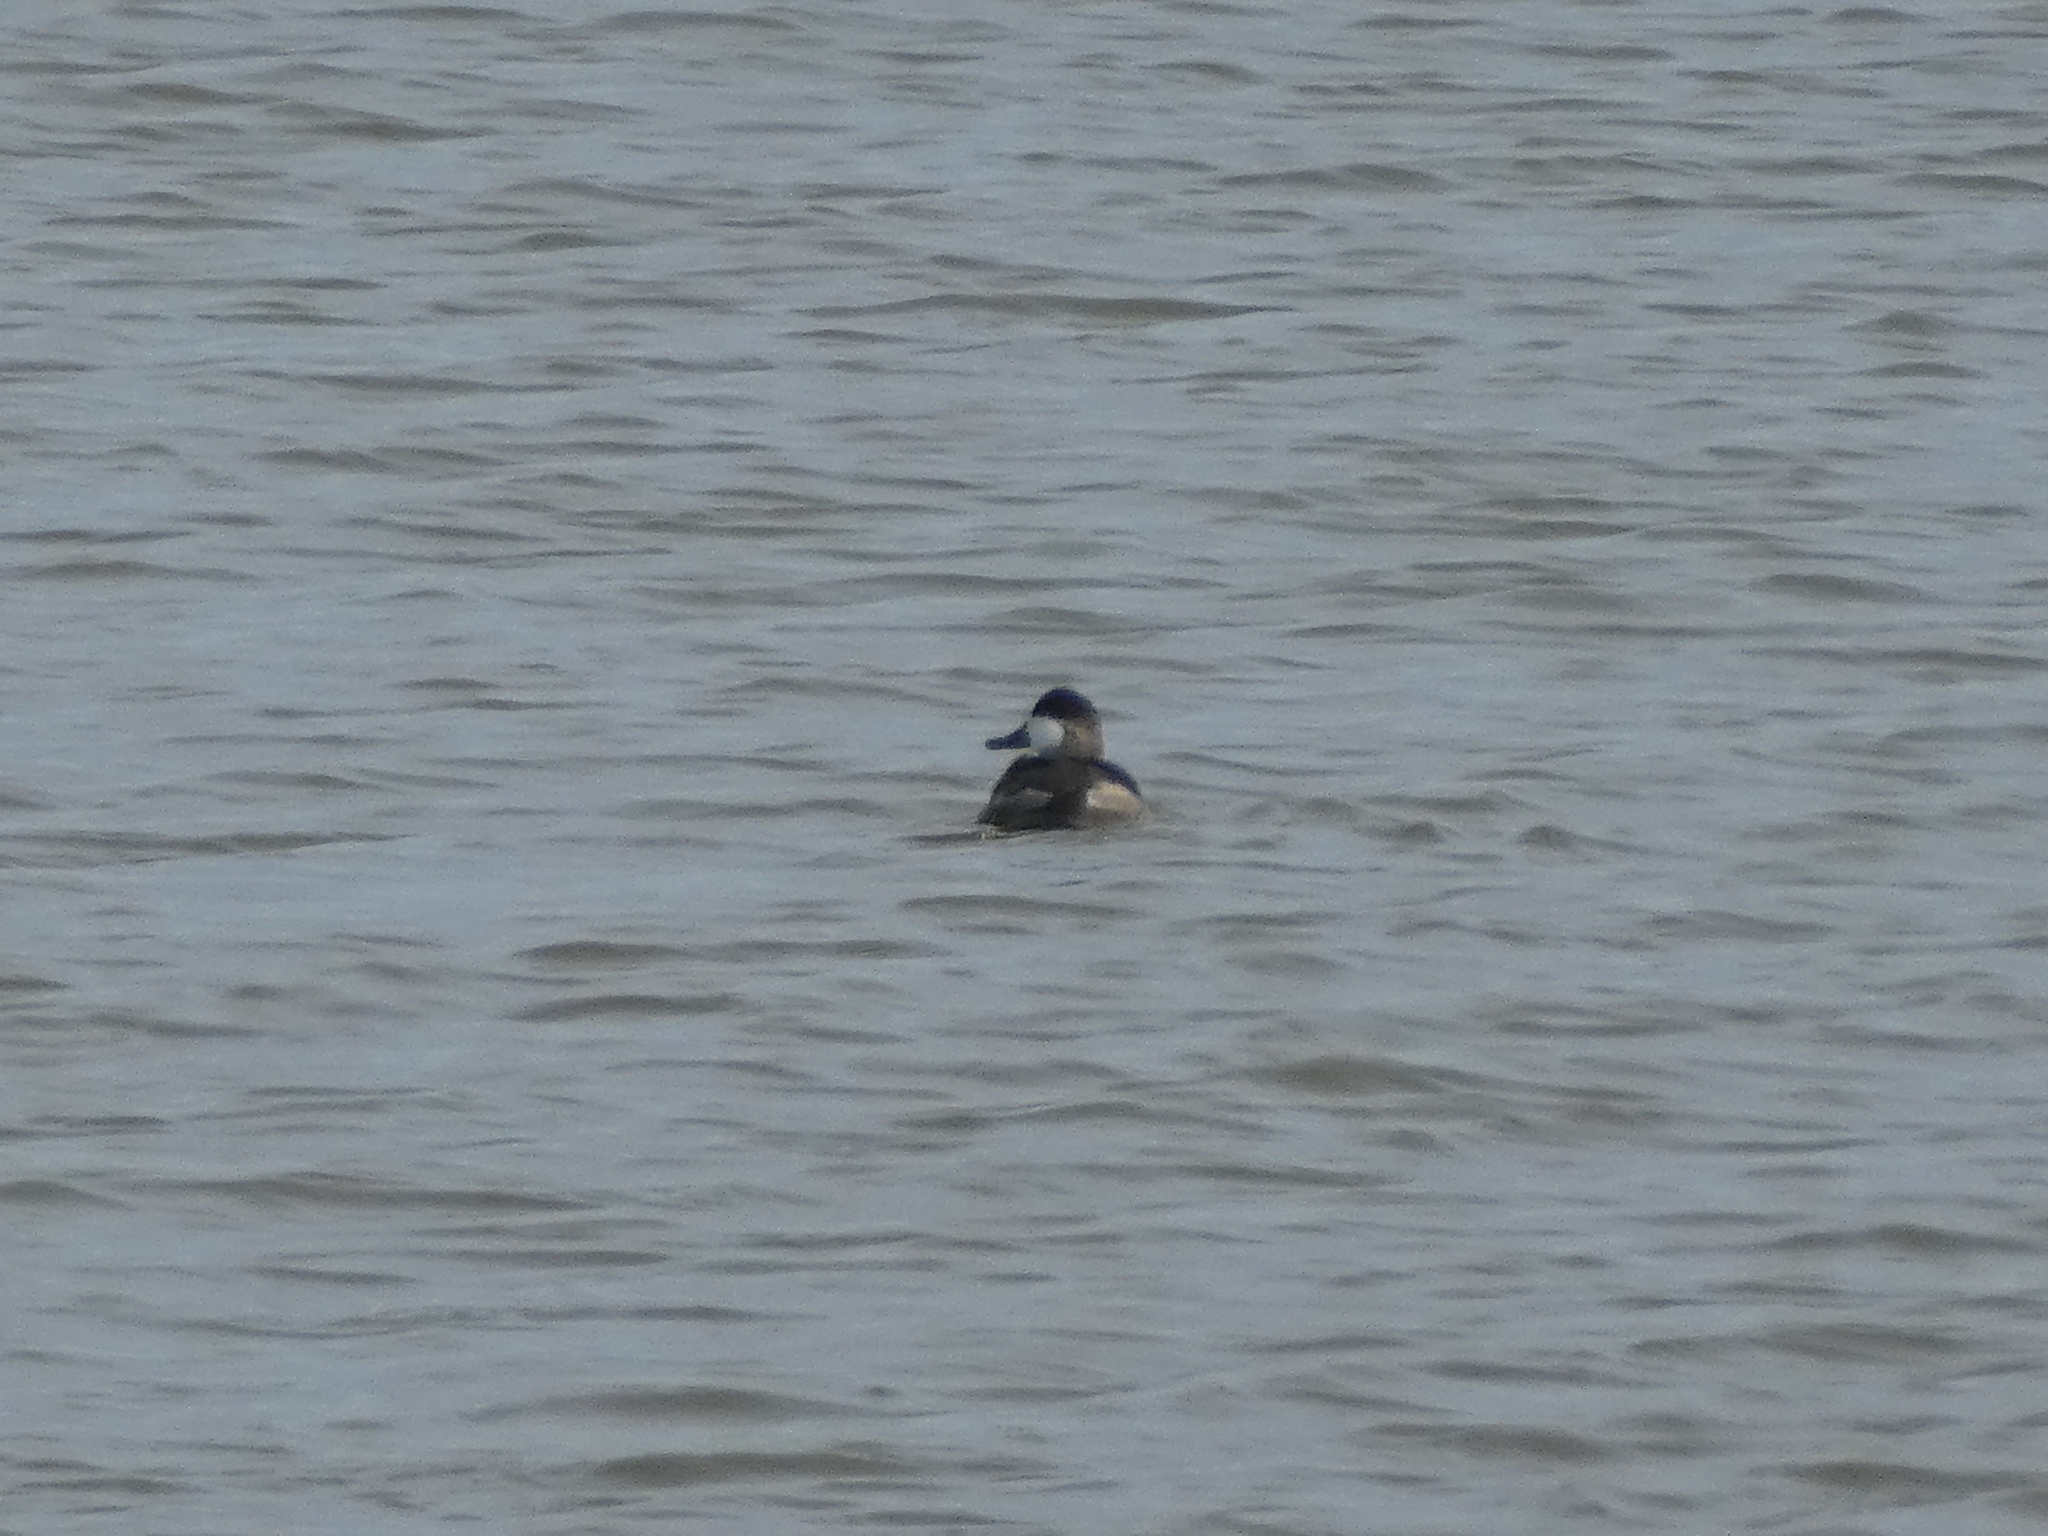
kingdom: Animalia
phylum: Chordata
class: Aves
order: Anseriformes
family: Anatidae
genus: Oxyura
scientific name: Oxyura jamaicensis
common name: Ruddy duck
